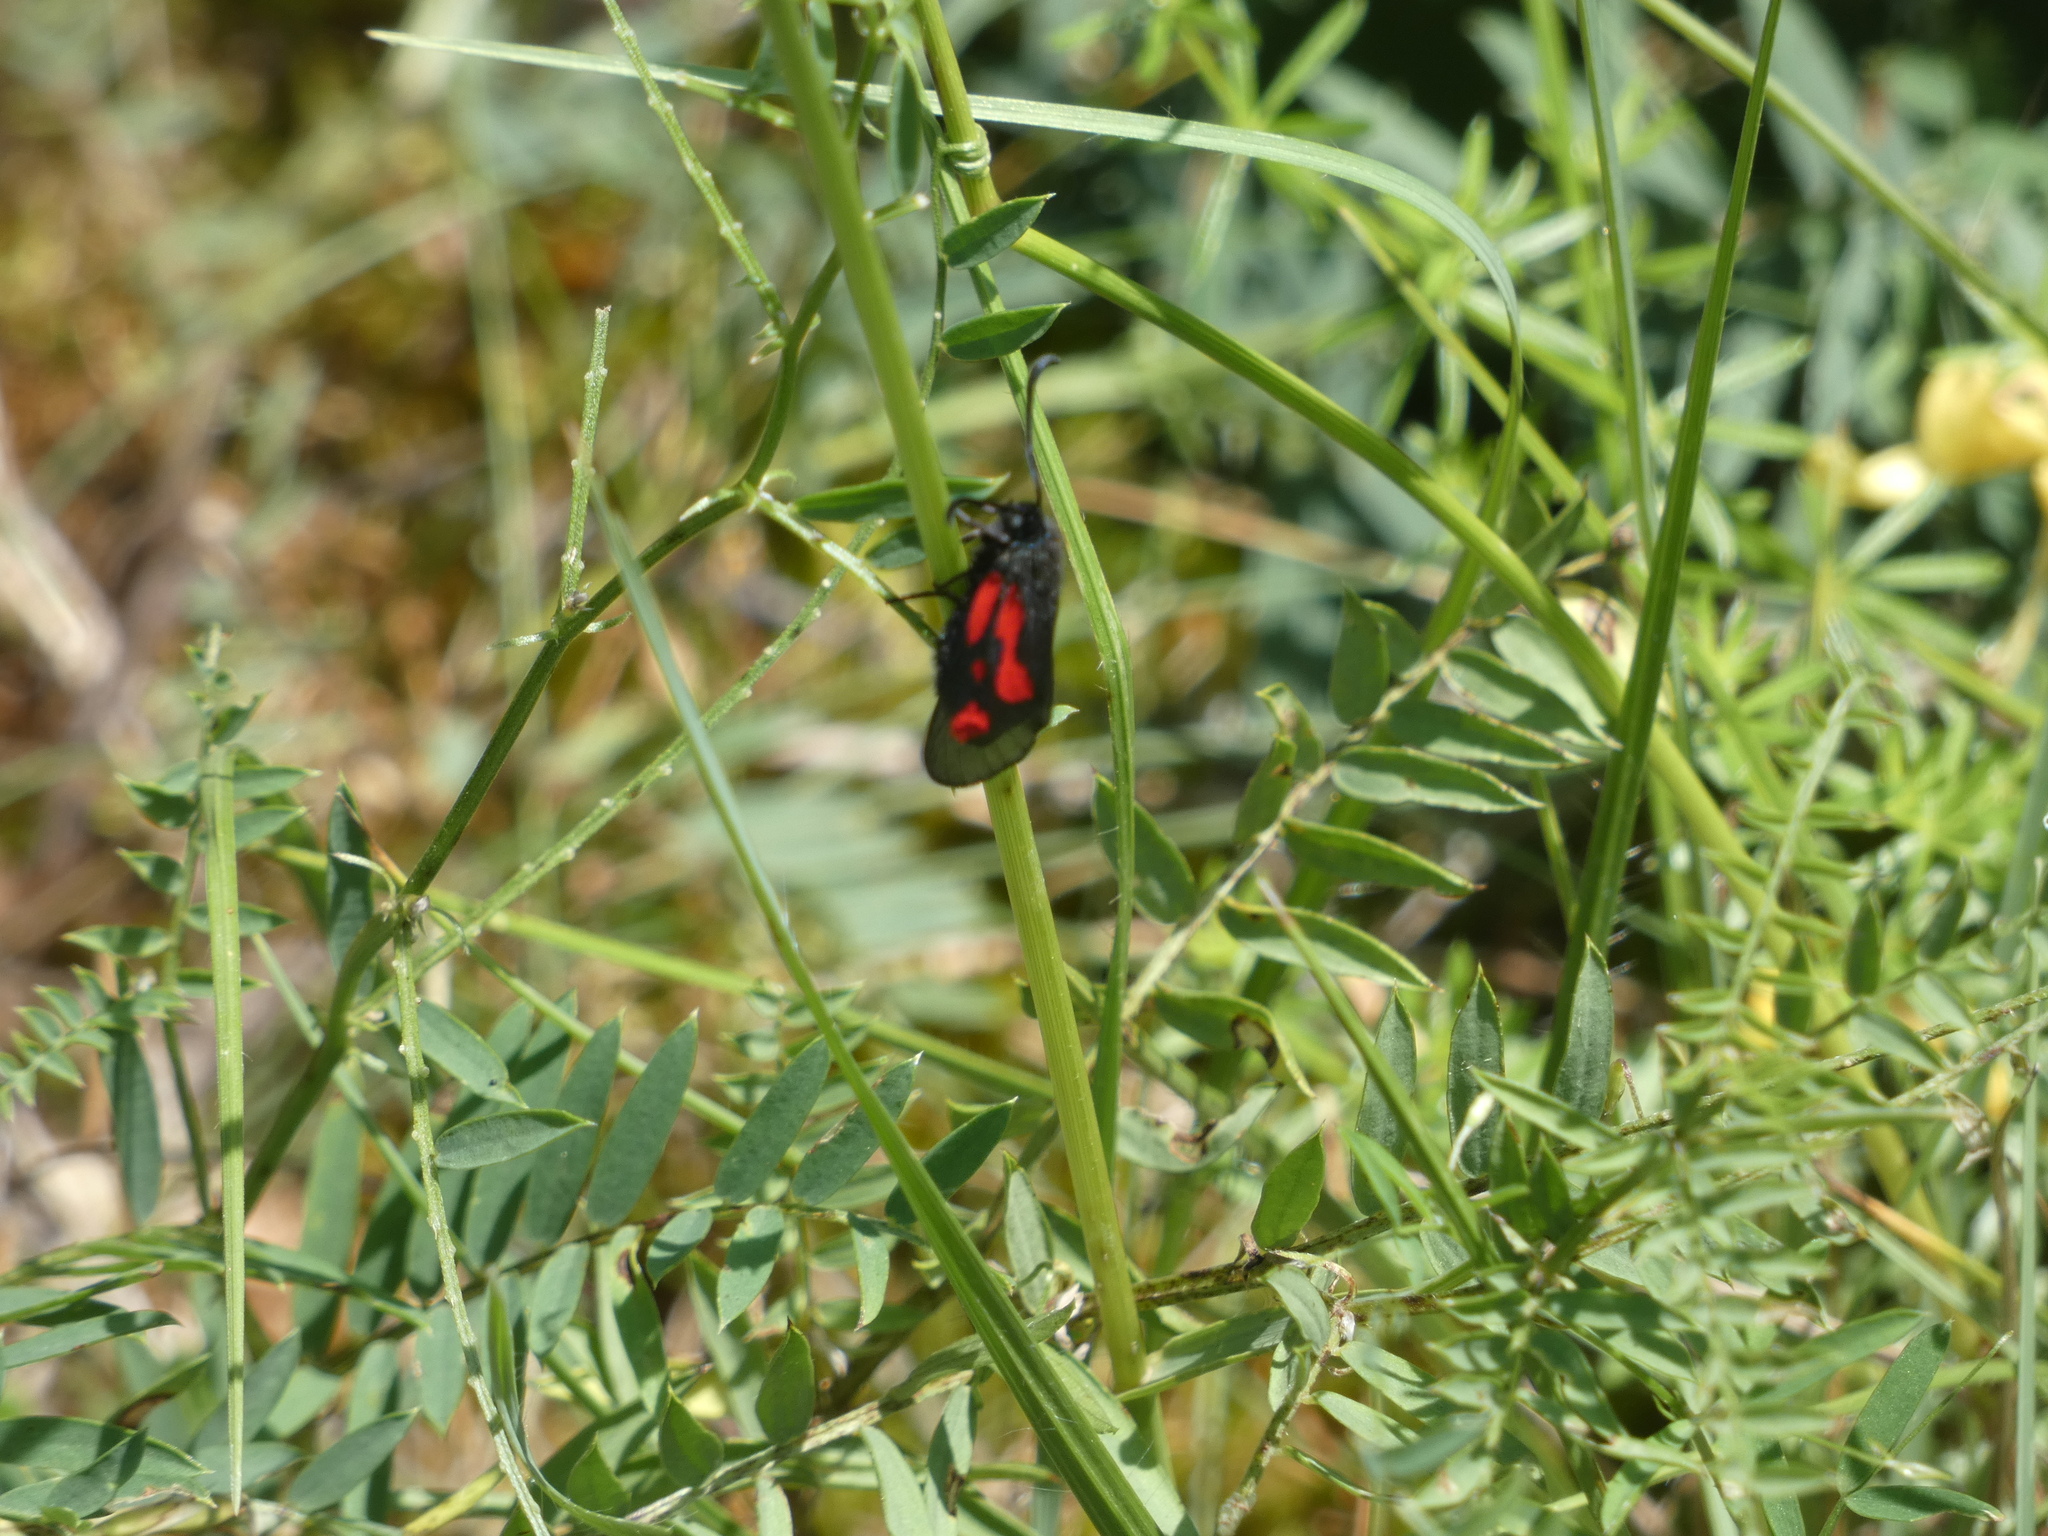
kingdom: Animalia
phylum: Arthropoda
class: Insecta
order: Lepidoptera
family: Zygaenidae
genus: Zygaena
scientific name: Zygaena romeo
